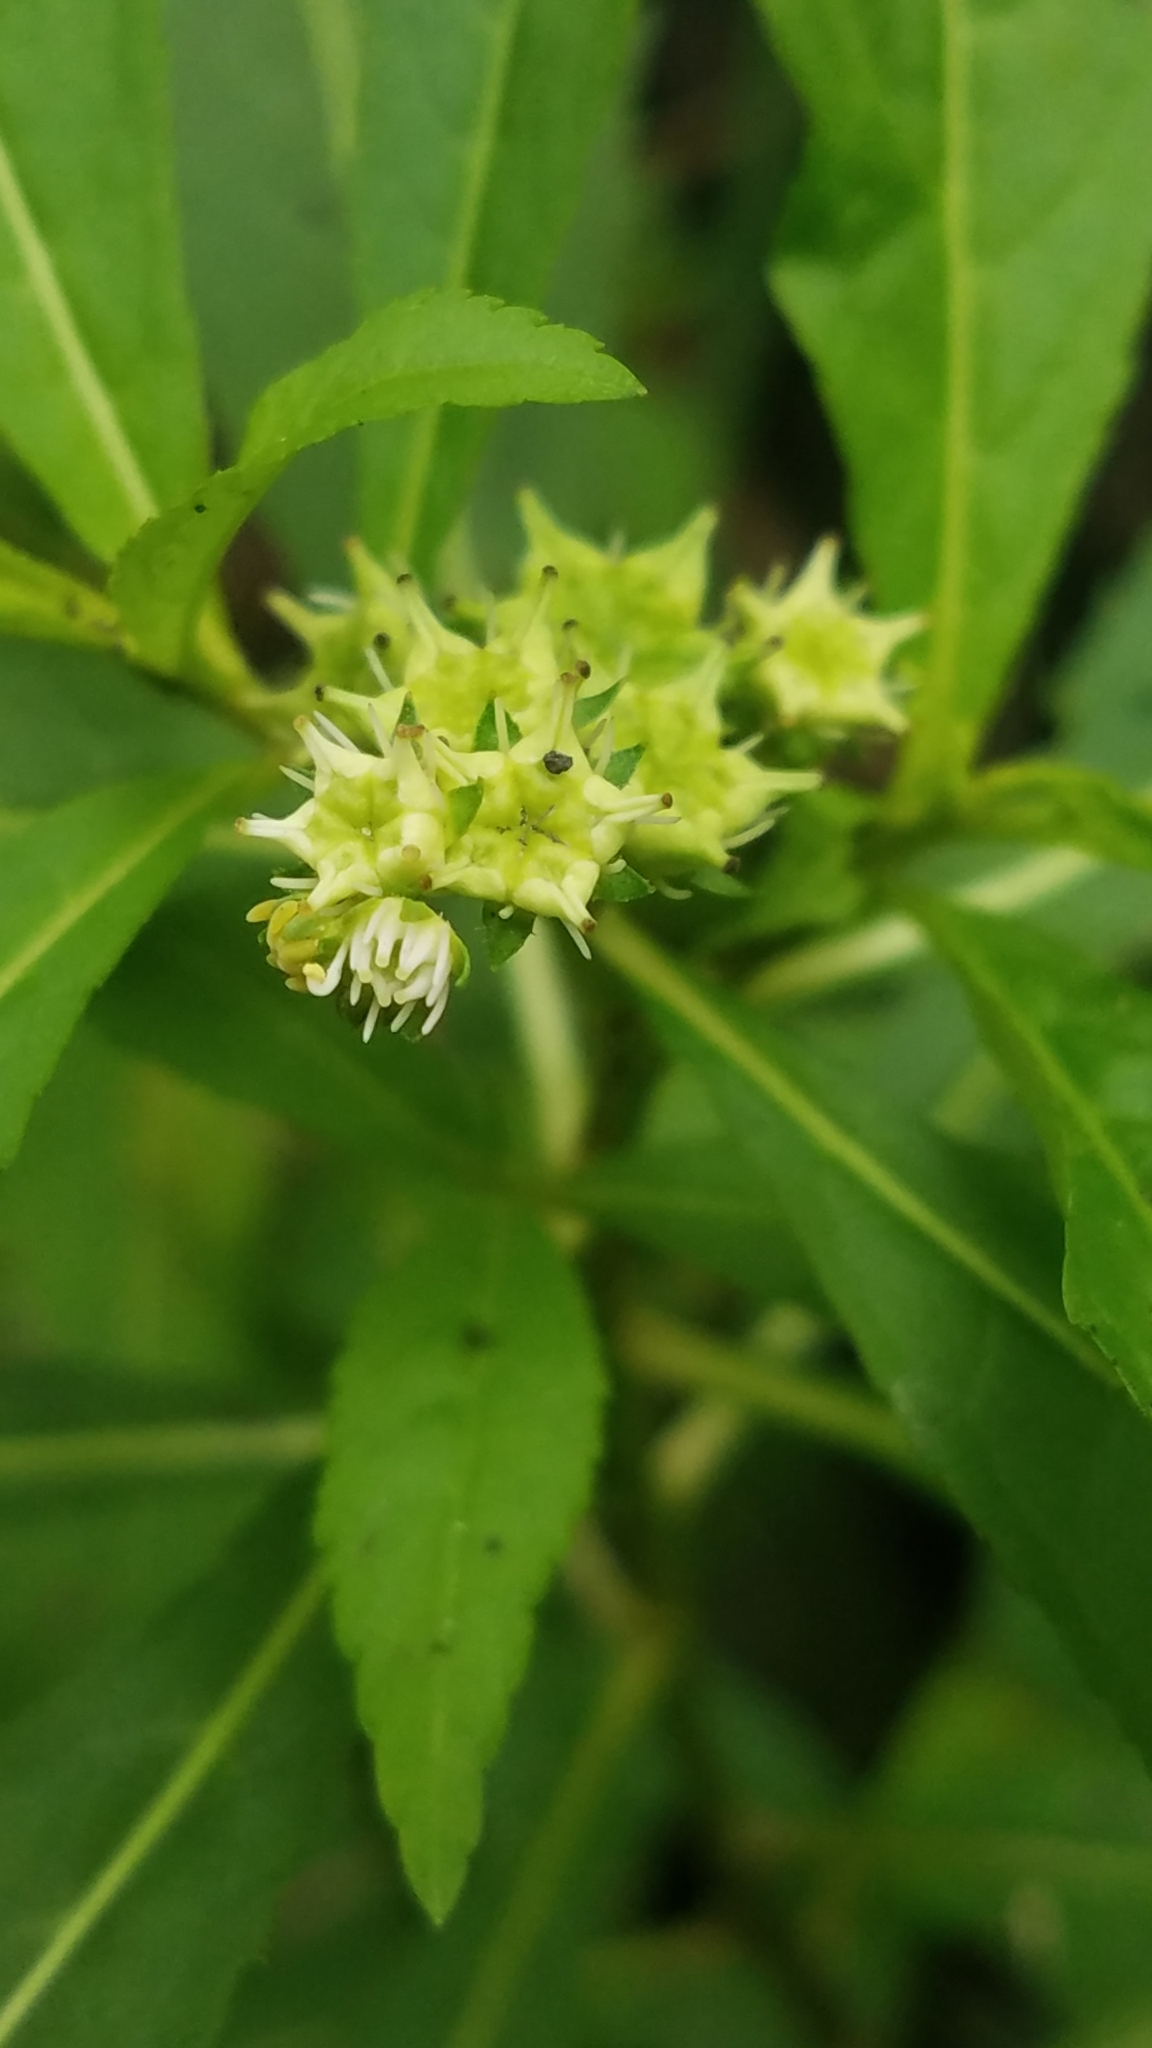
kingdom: Plantae
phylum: Tracheophyta
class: Magnoliopsida
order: Saxifragales
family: Penthoraceae
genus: Penthorum
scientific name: Penthorum sedoides
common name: Ditch stonecrop
